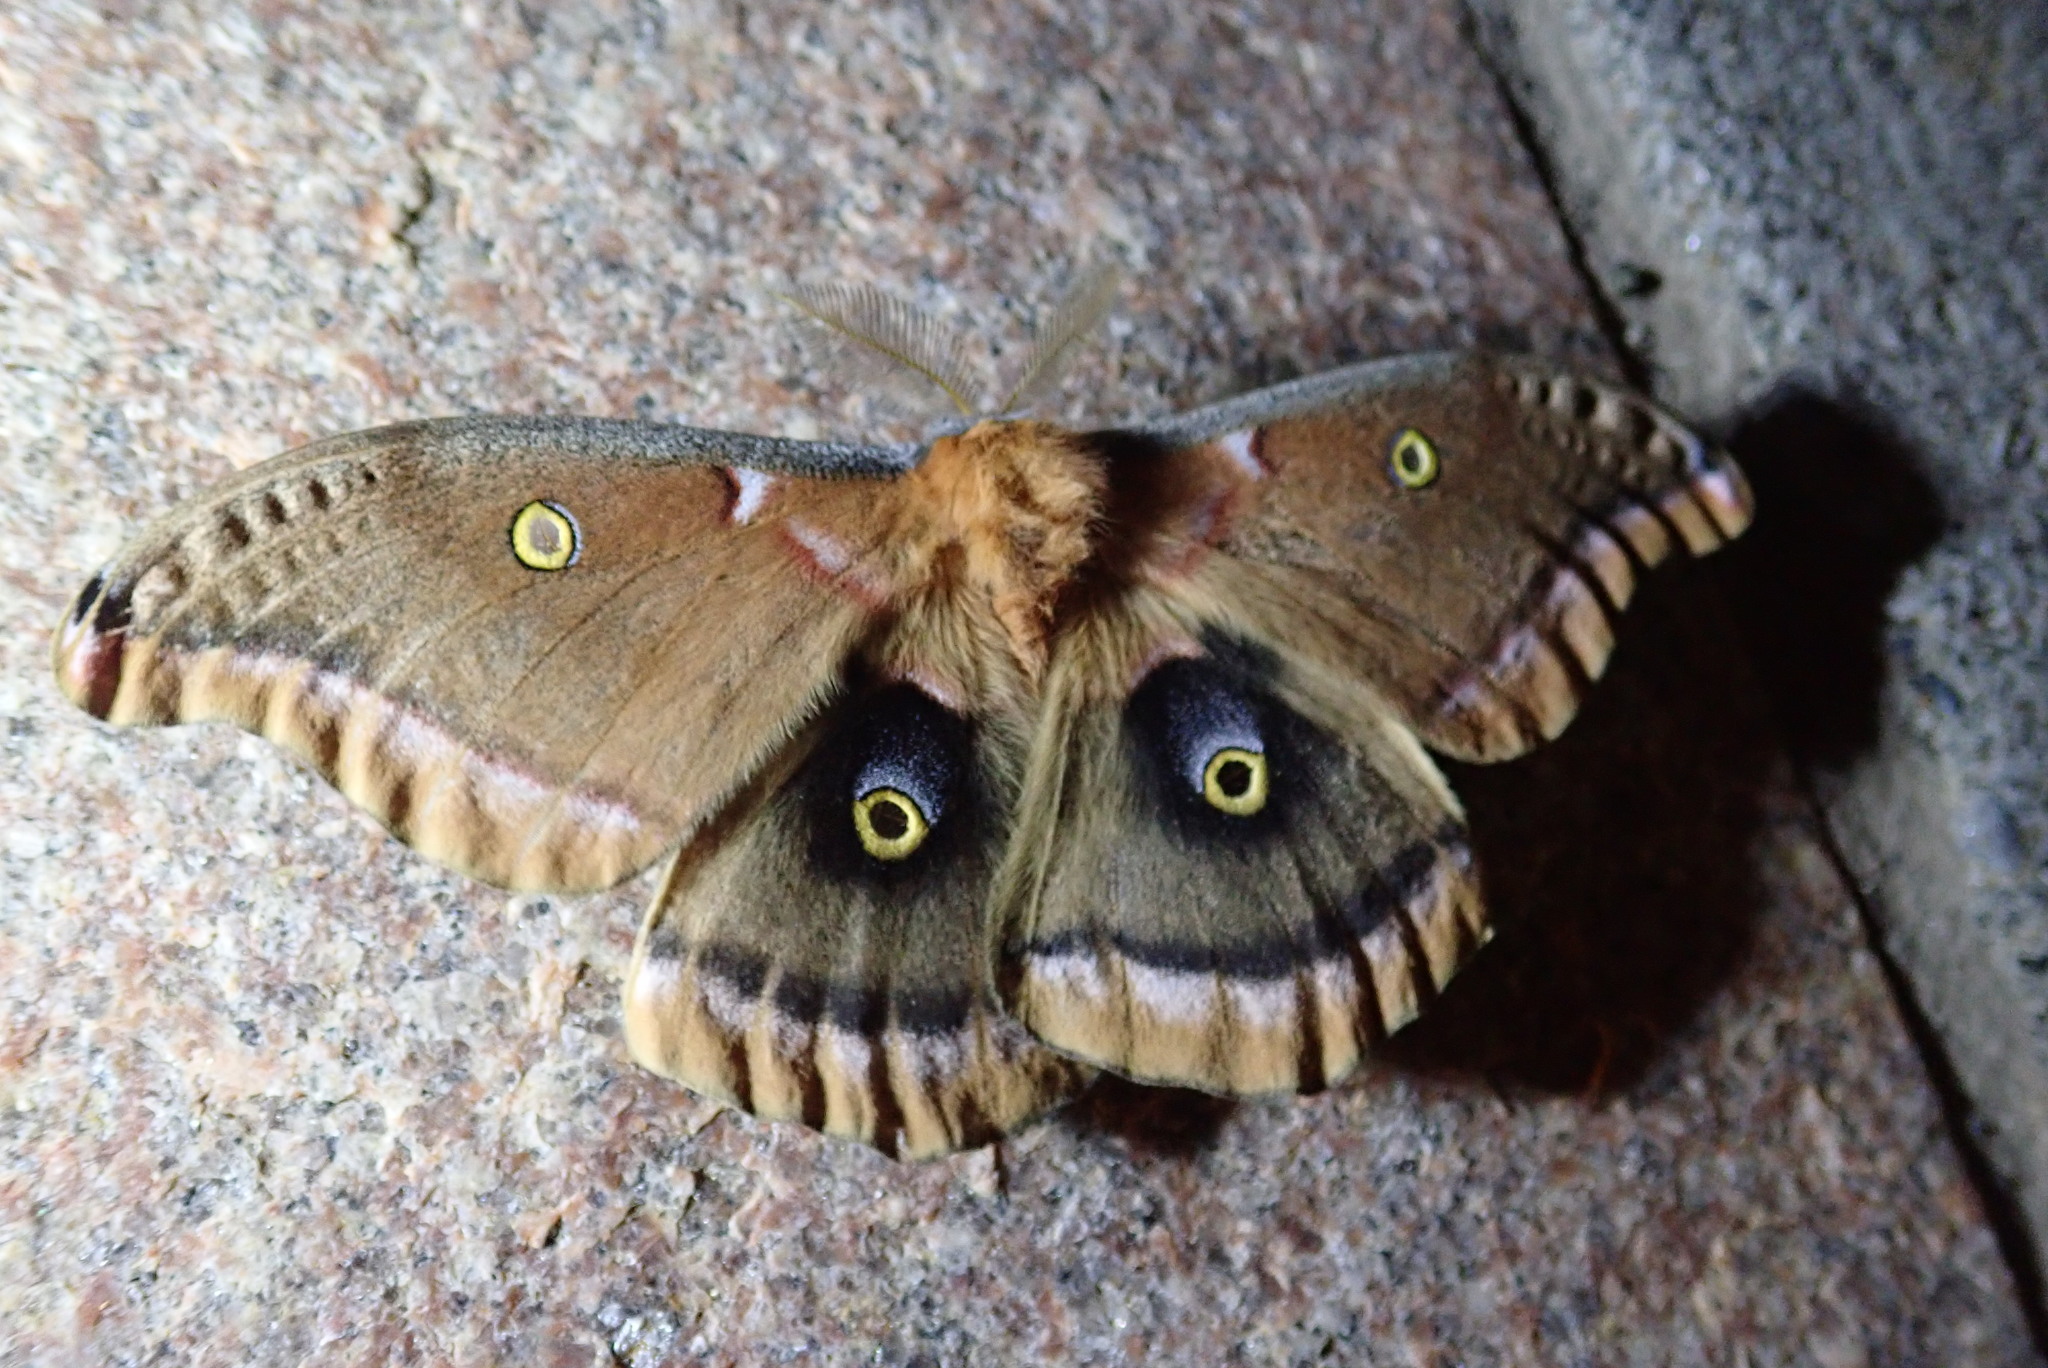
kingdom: Animalia
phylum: Arthropoda
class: Insecta
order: Lepidoptera
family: Saturniidae
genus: Antheraea
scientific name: Antheraea polyphemus
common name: Polyphemus moth
